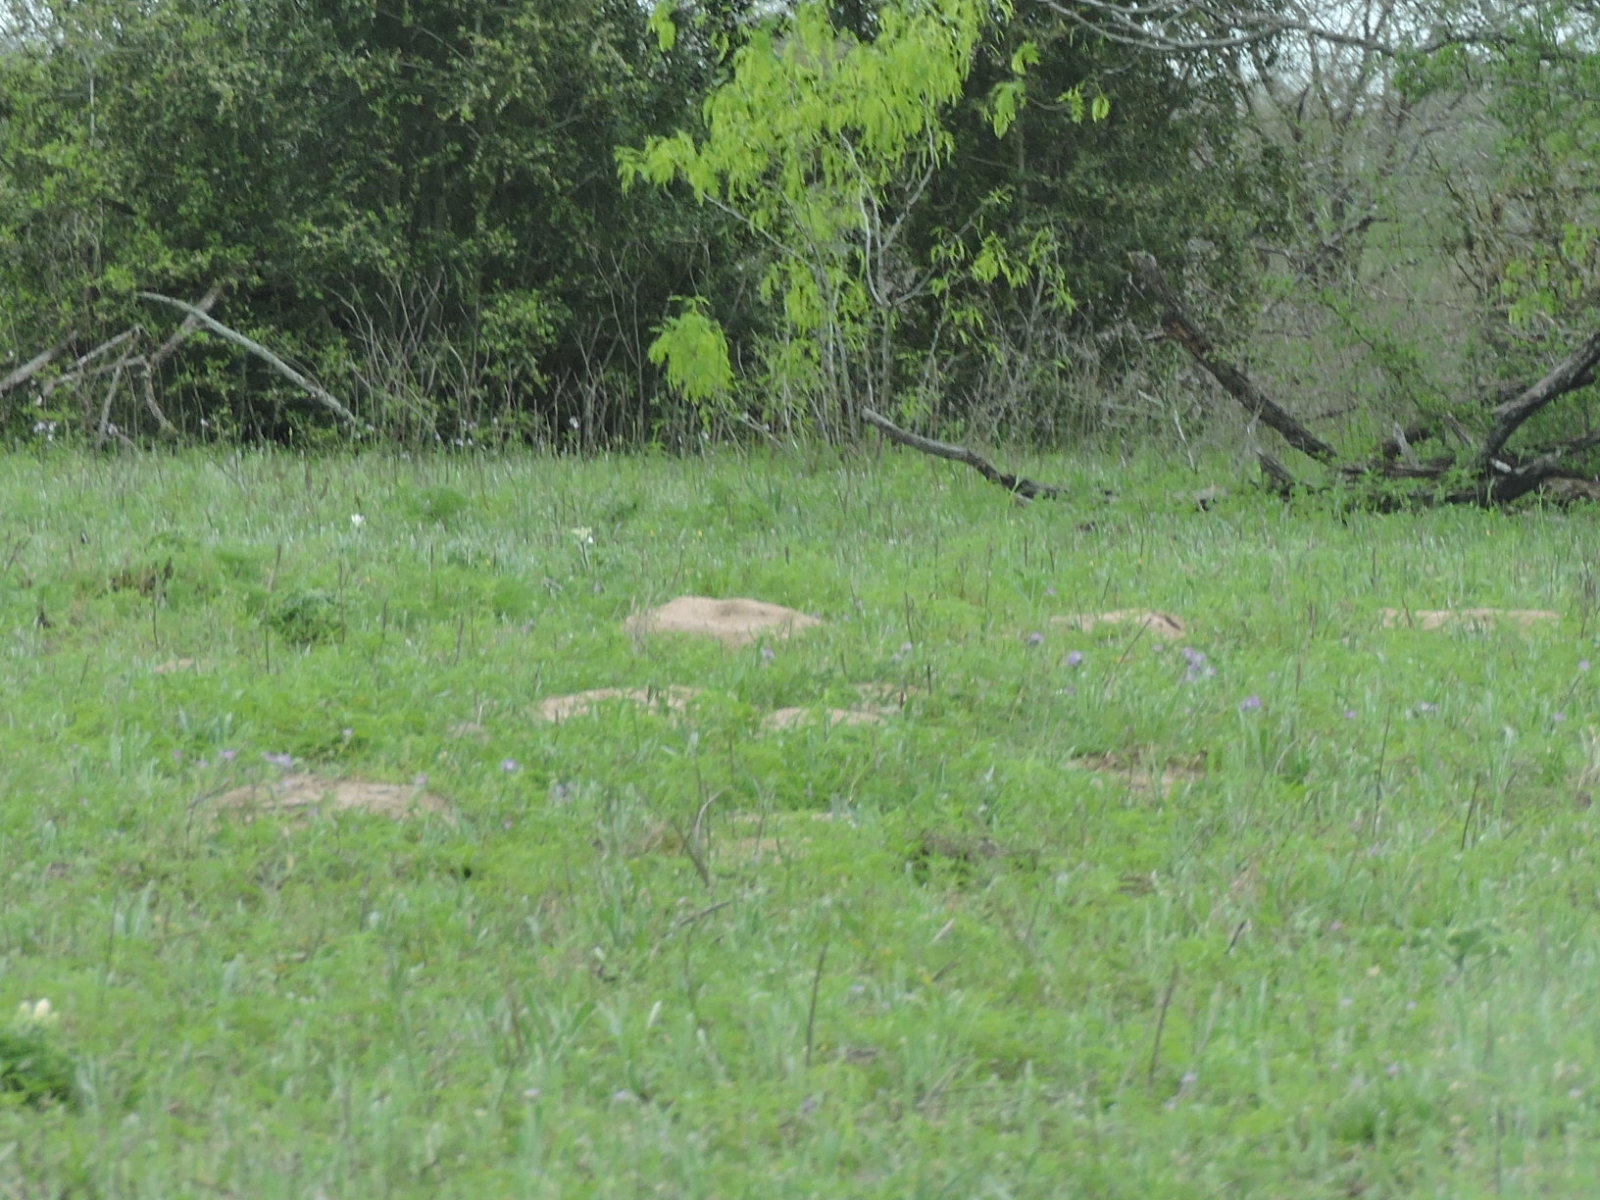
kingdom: Animalia
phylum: Chordata
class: Mammalia
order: Rodentia
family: Geomyidae
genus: Geomys
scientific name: Geomys attwateri
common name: Attwater's pocket gopher
